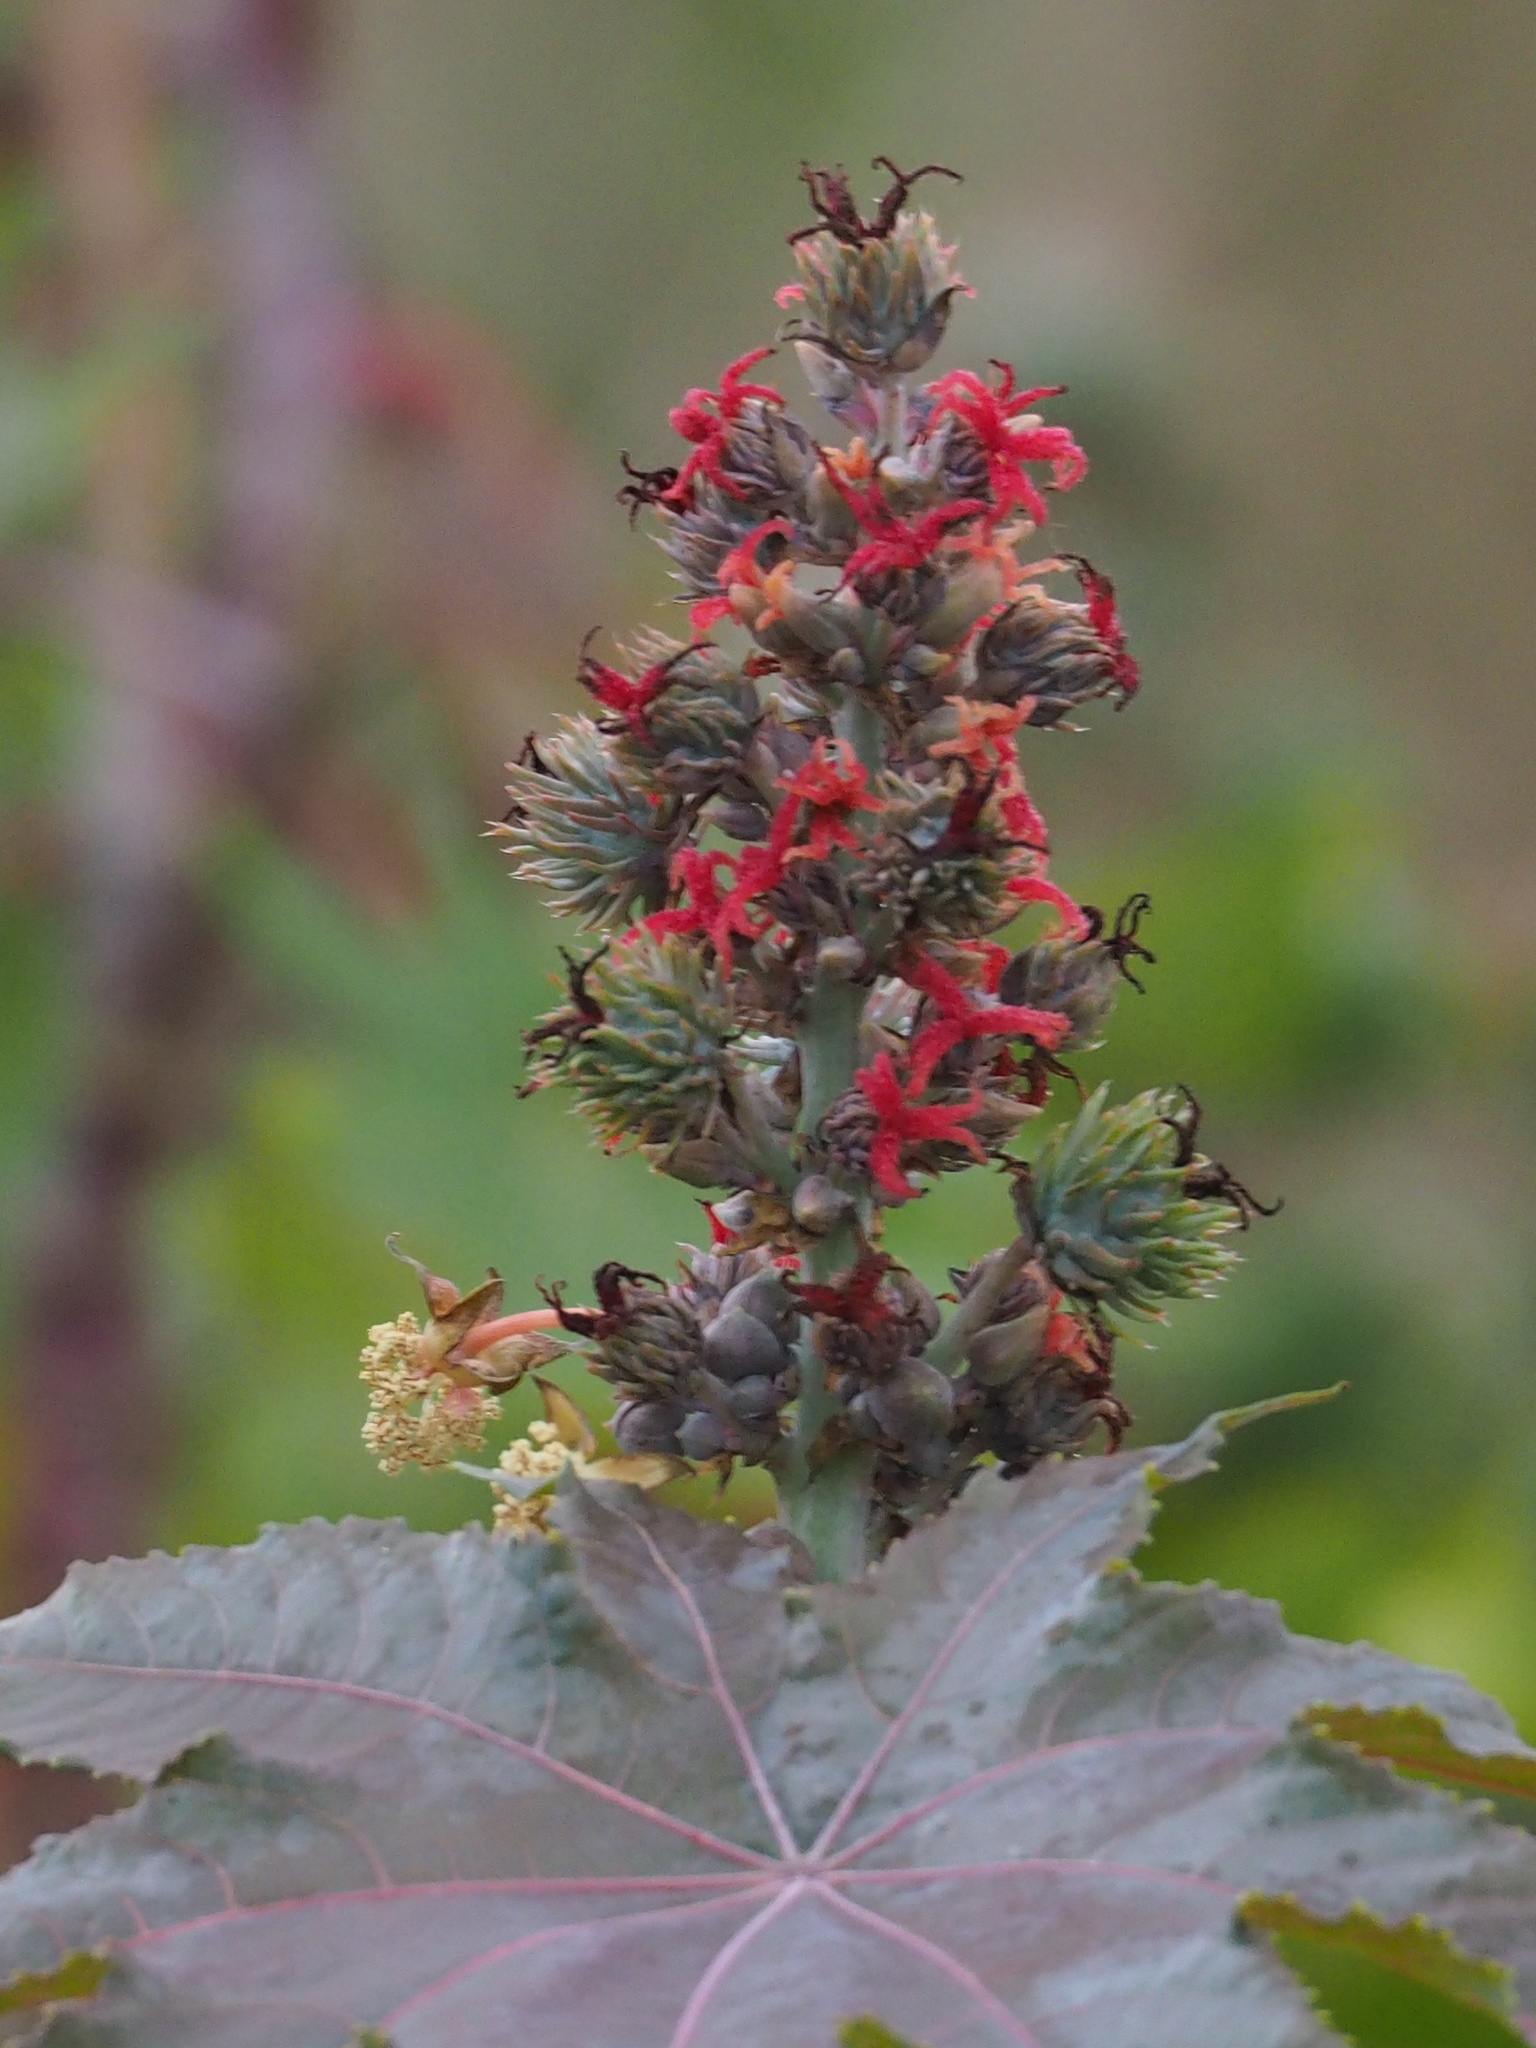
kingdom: Plantae
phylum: Tracheophyta
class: Magnoliopsida
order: Malpighiales
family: Euphorbiaceae
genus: Ricinus
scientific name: Ricinus communis
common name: Castor-oil-plant
